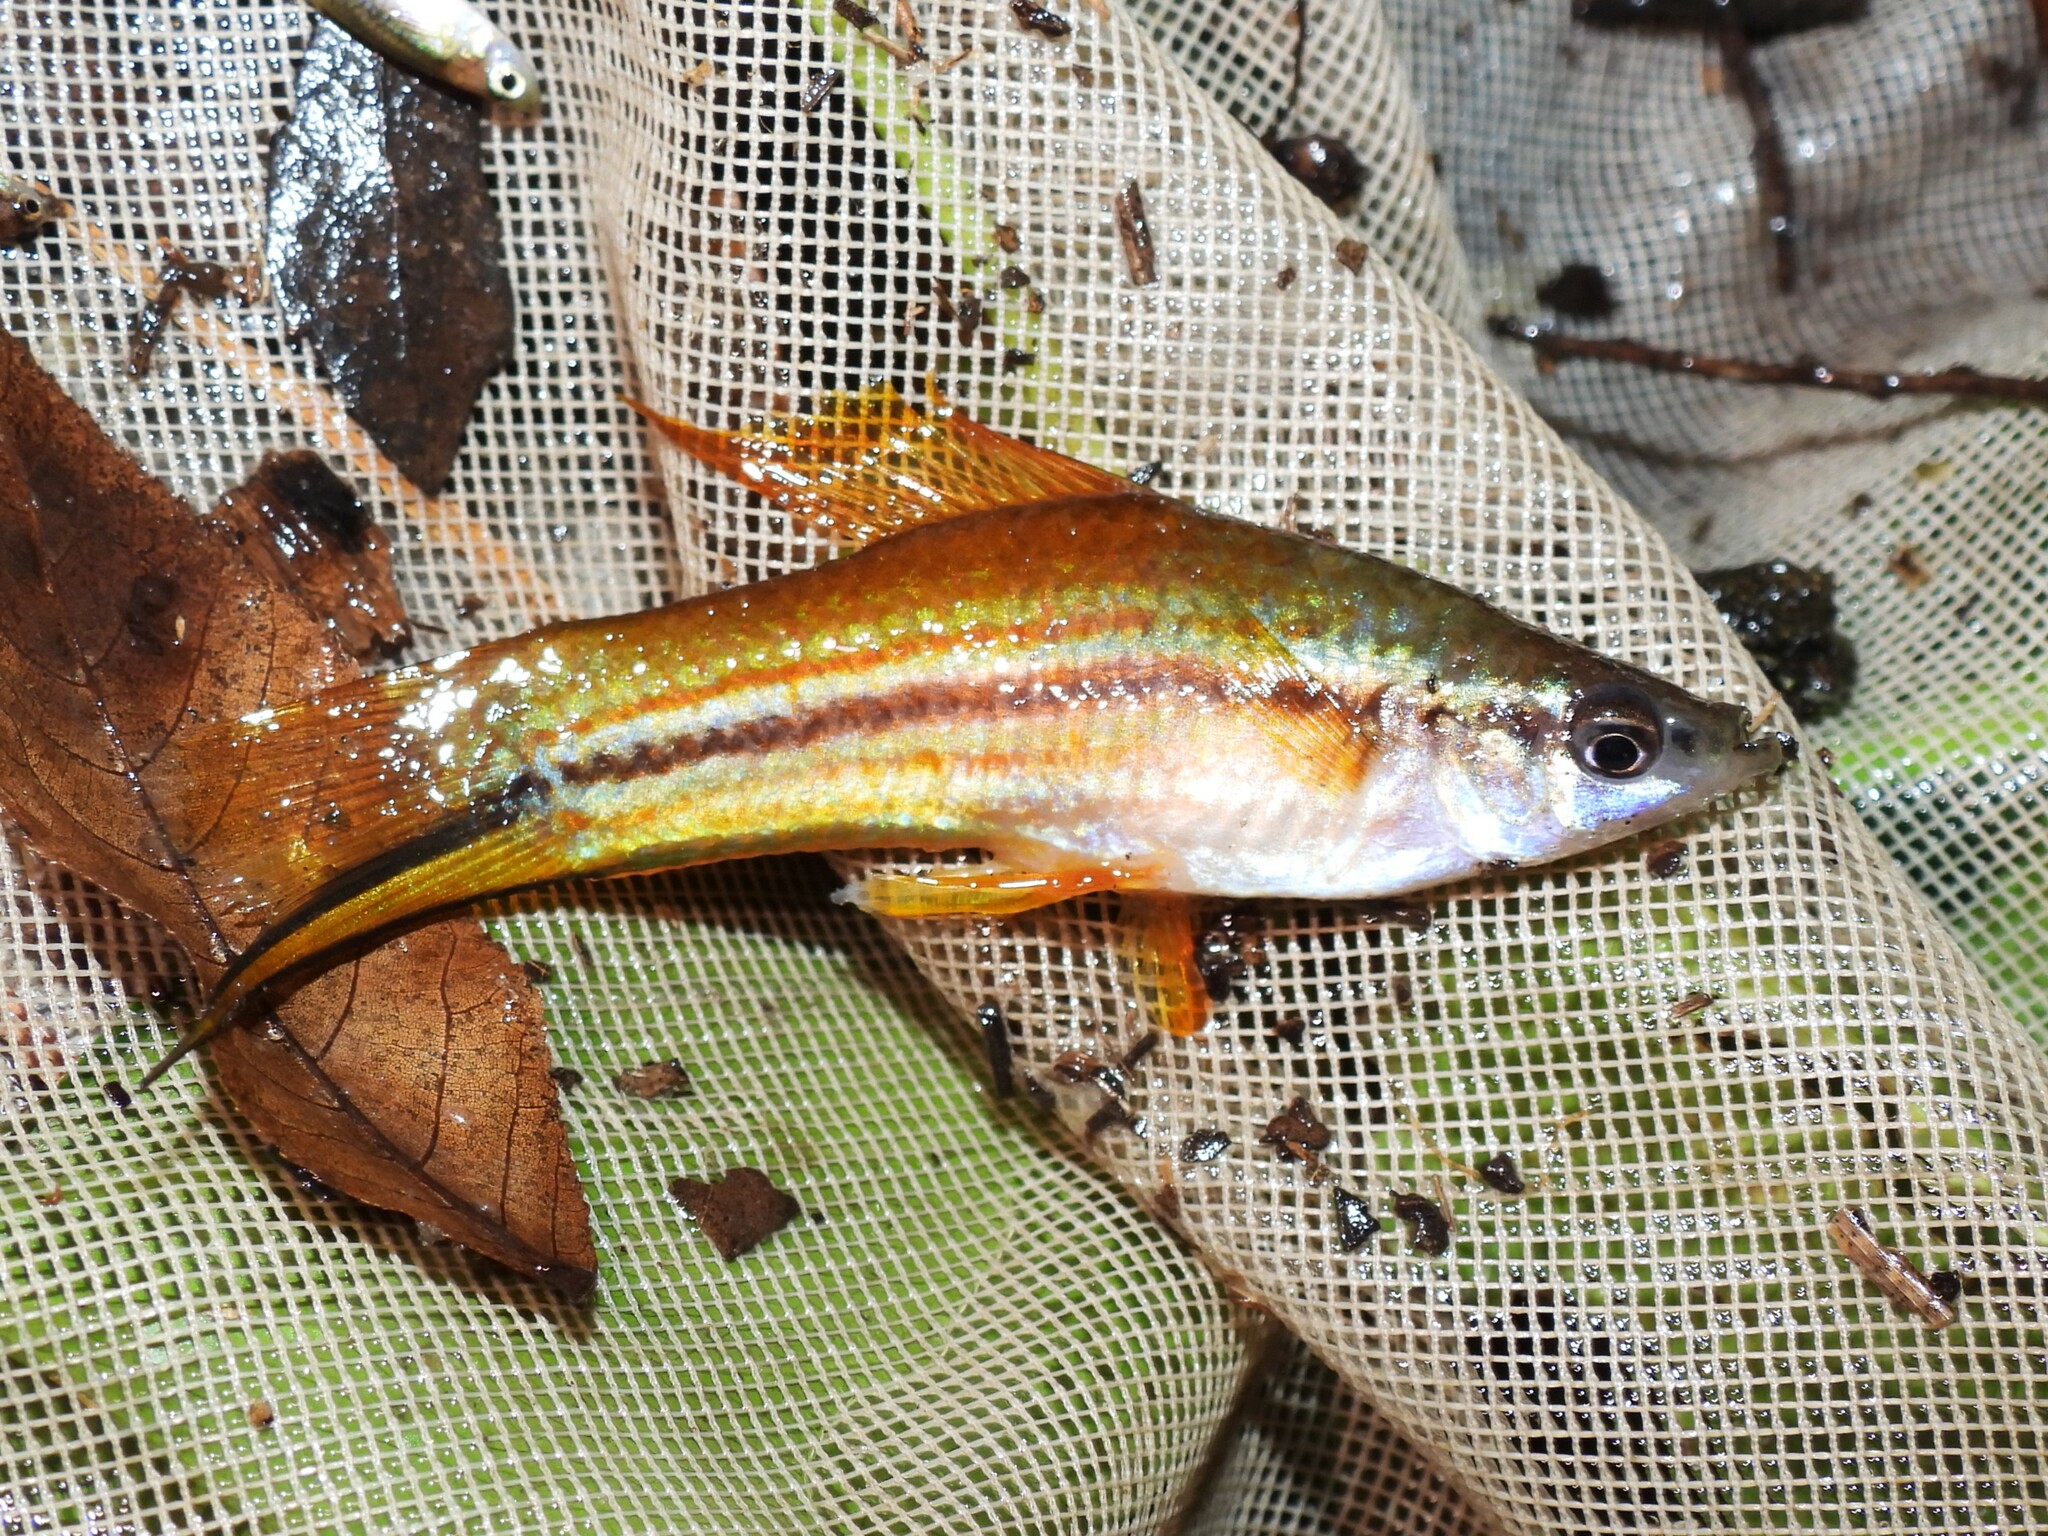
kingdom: Animalia
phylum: Chordata
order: Cyprinodontiformes
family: Poeciliidae
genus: Xiphophorus
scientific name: Xiphophorus hellerii
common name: Green swordtail
